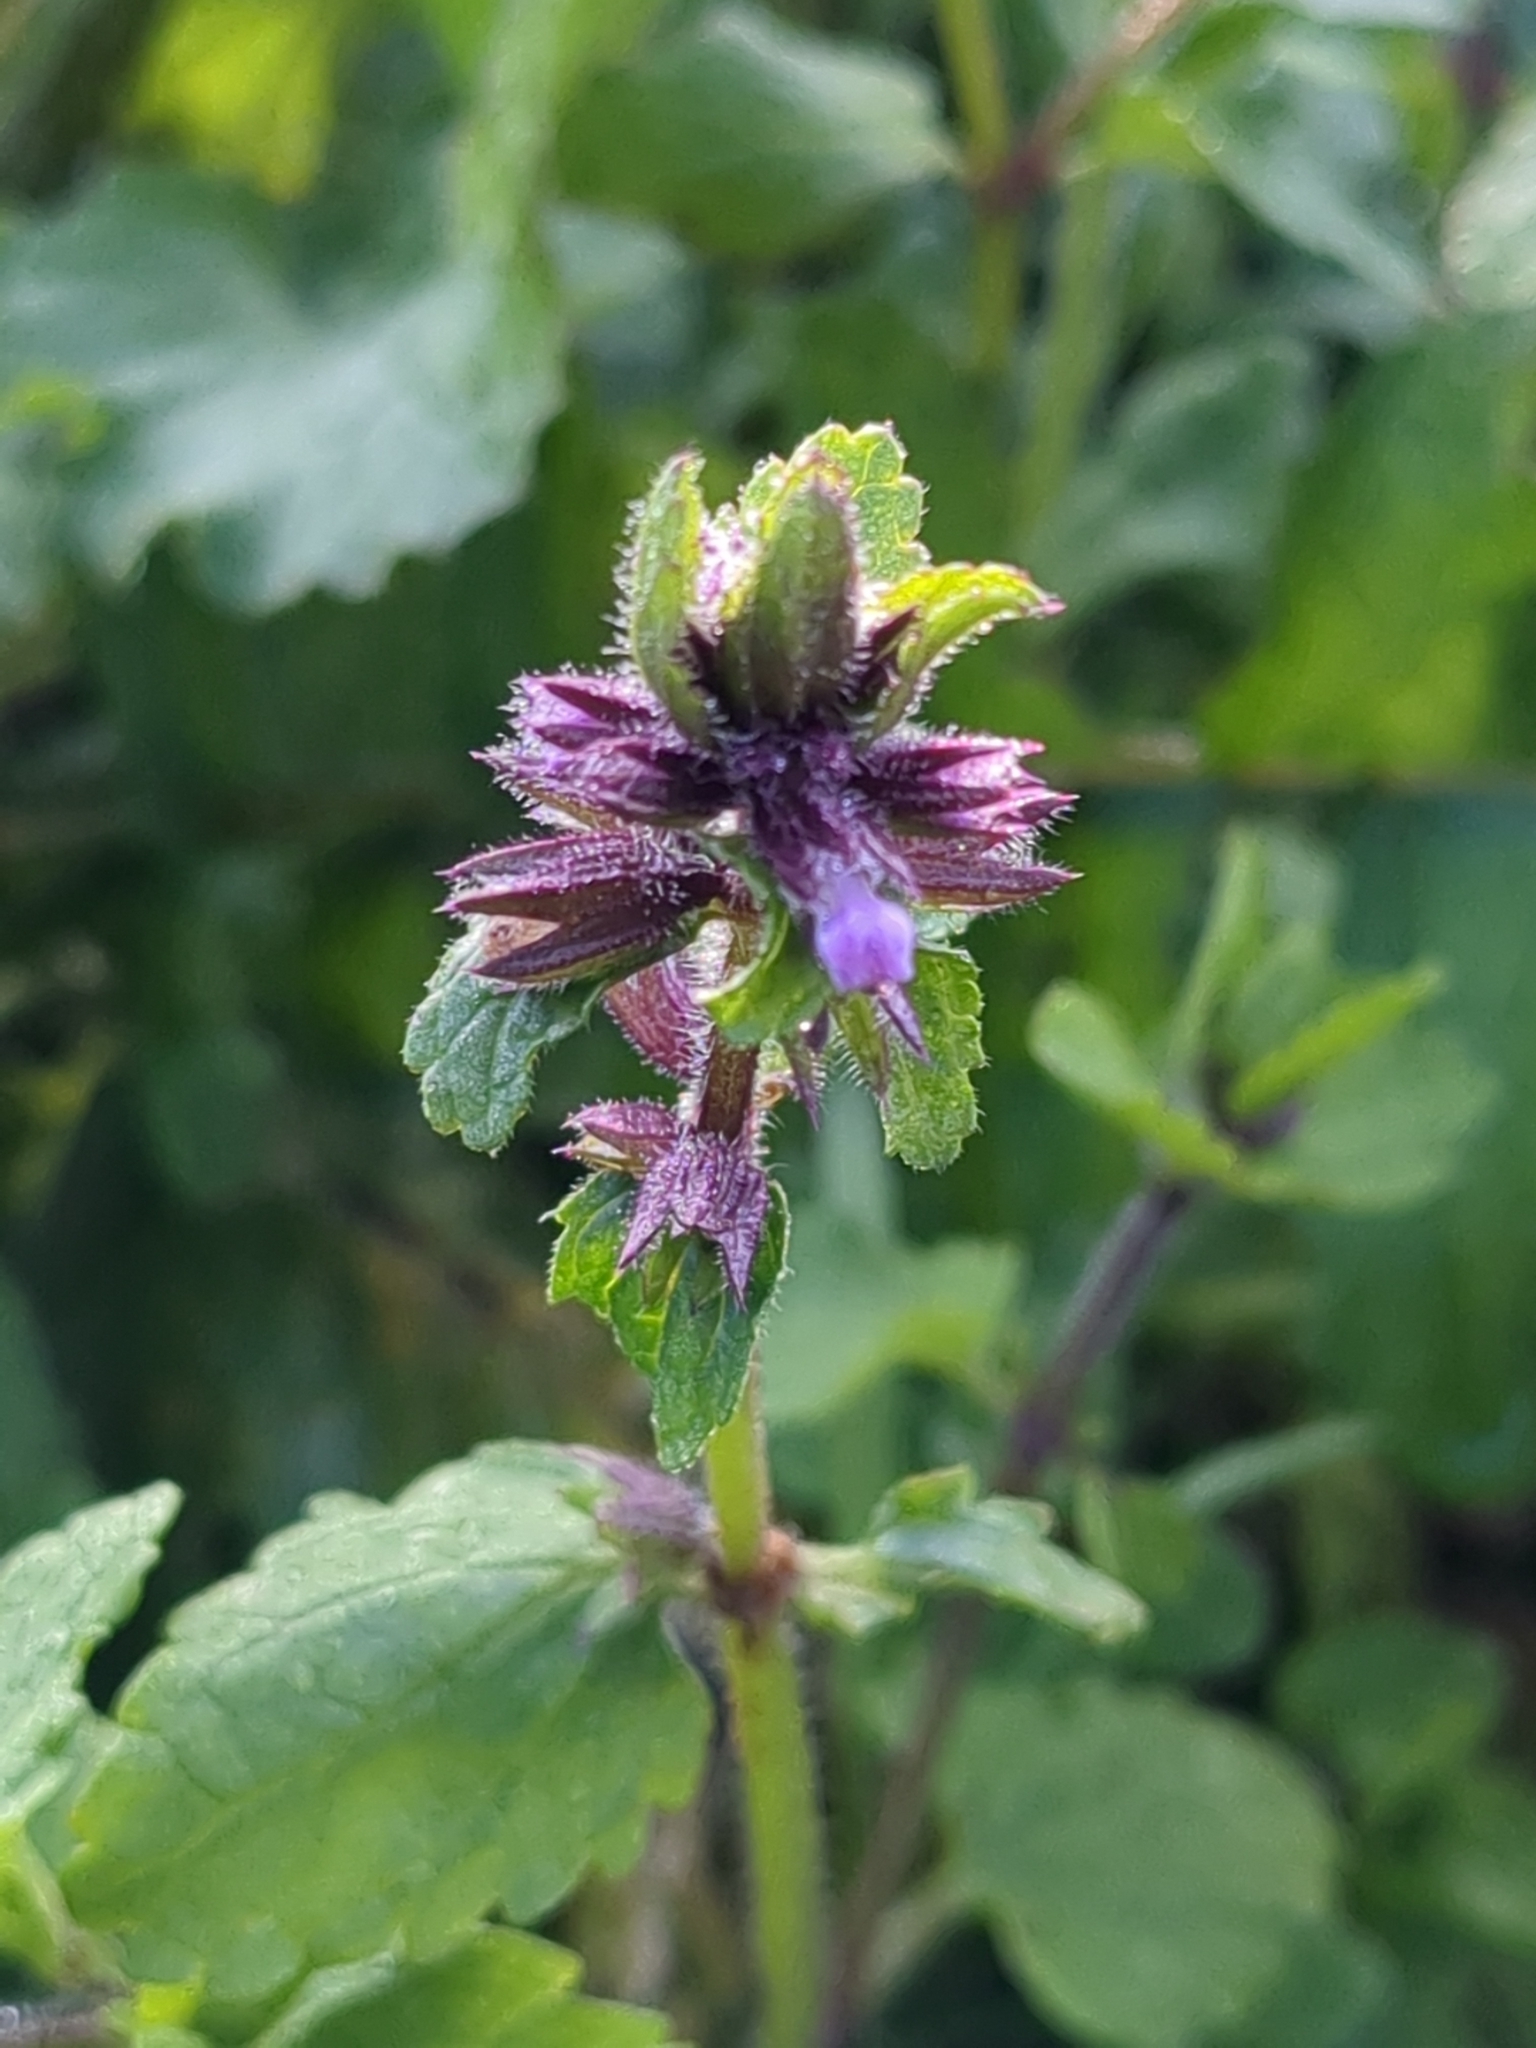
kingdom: Plantae
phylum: Tracheophyta
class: Magnoliopsida
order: Lamiales
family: Lamiaceae
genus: Stachys
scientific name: Stachys arvensis
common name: Field woundwort
